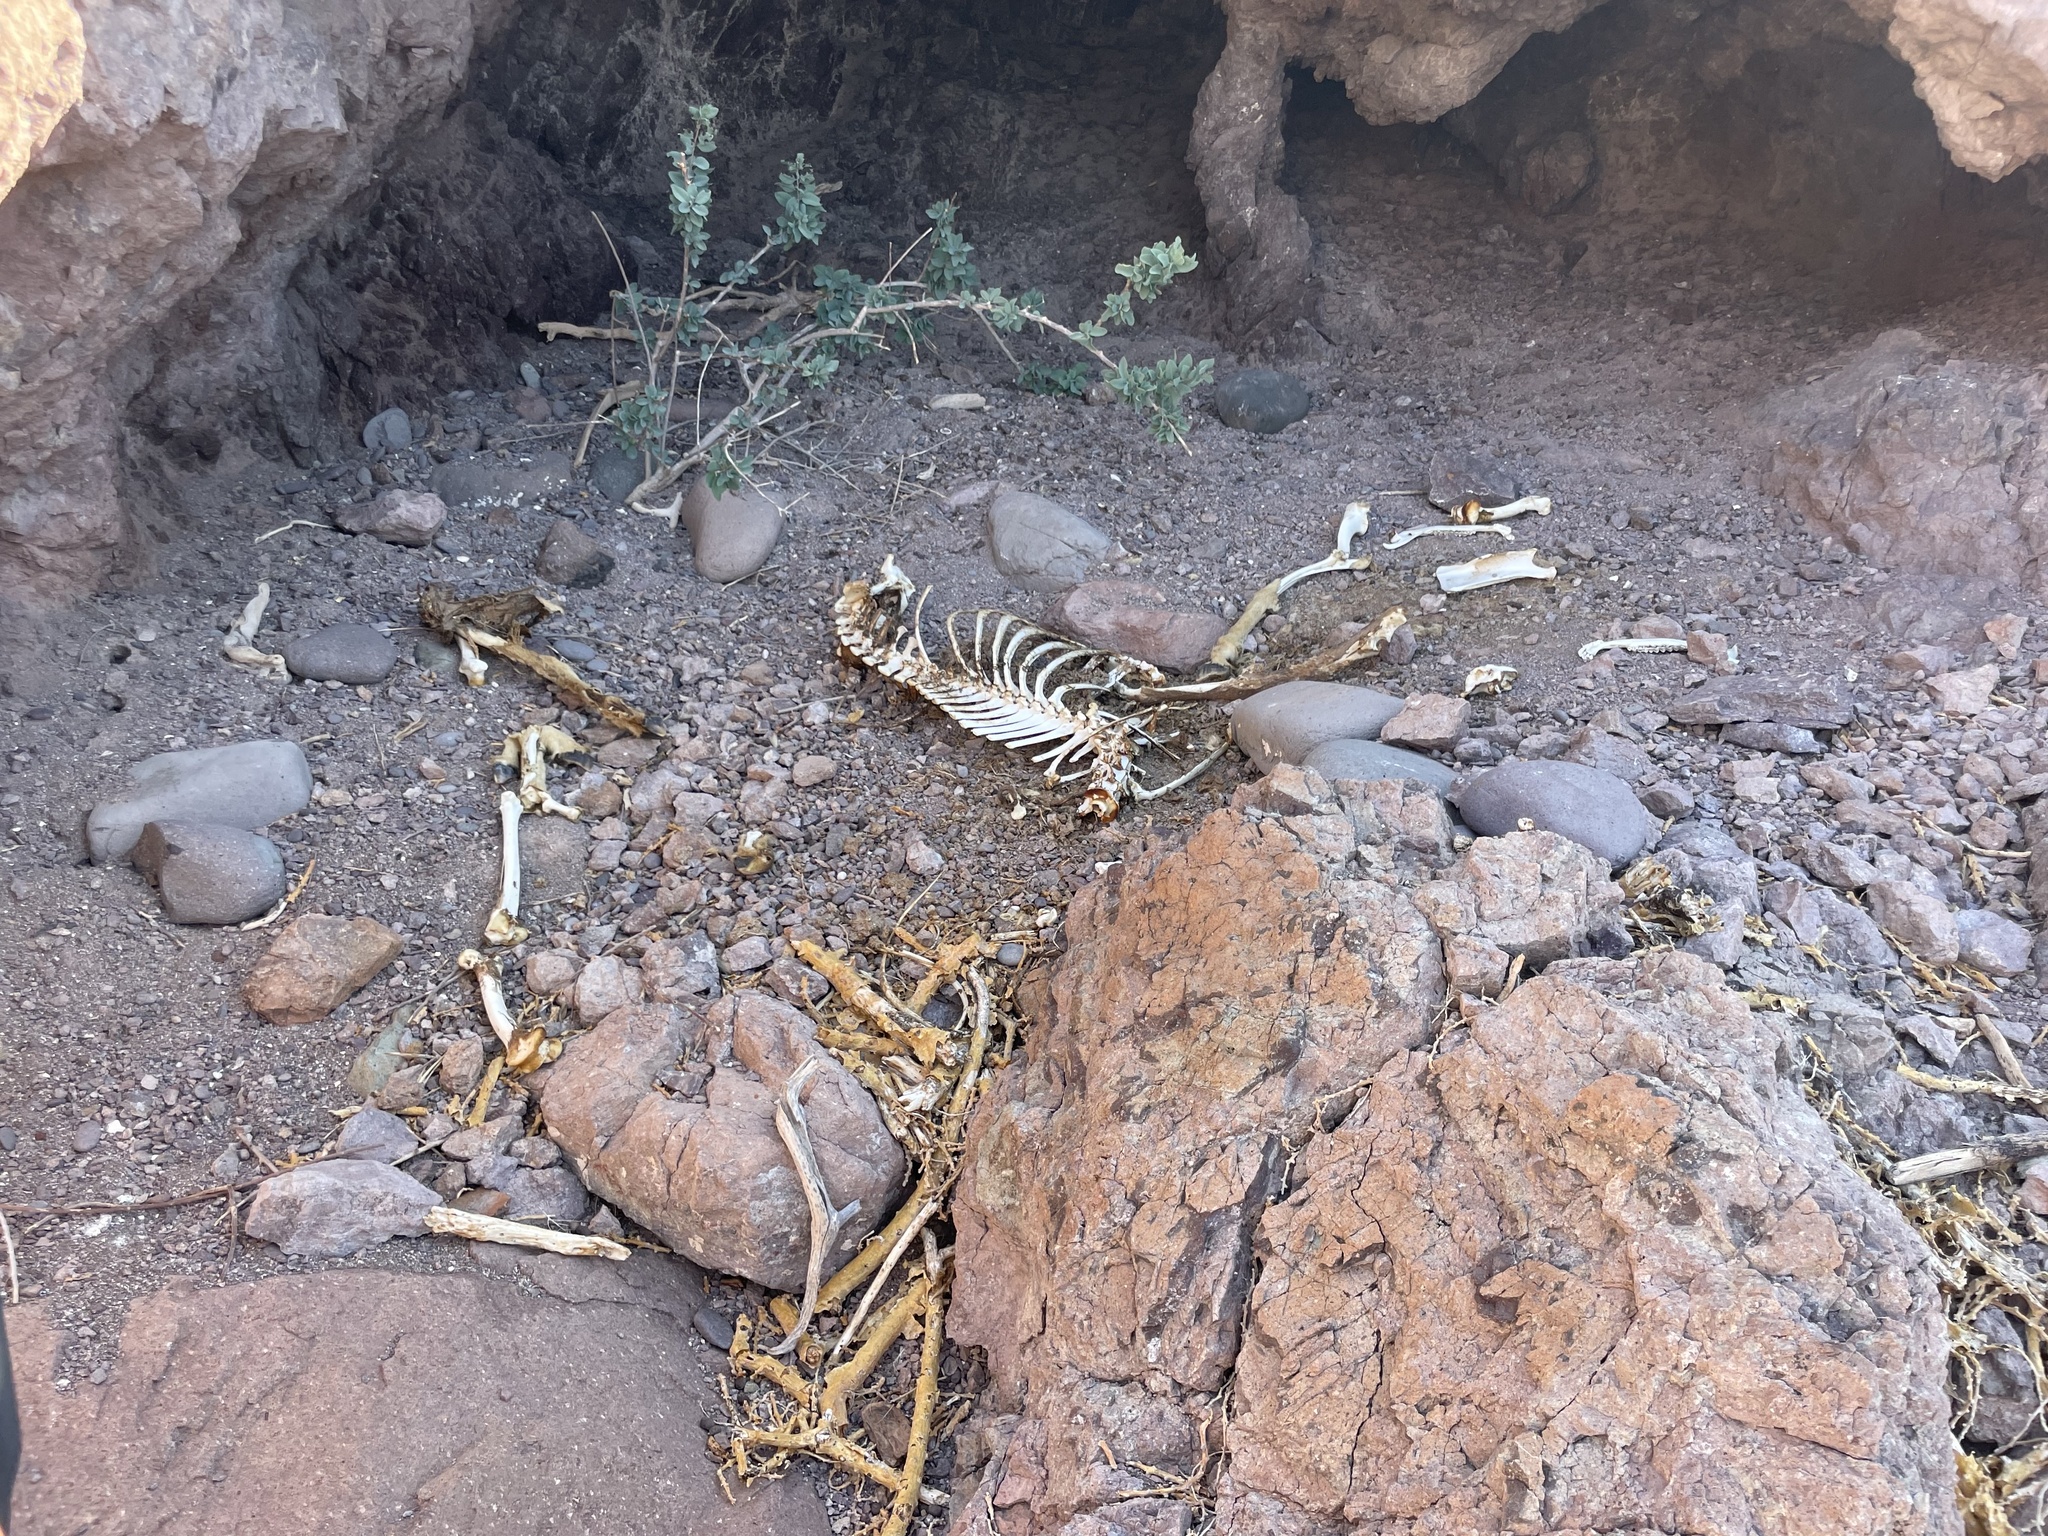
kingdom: Animalia
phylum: Chordata
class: Mammalia
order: Artiodactyla
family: Bovidae
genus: Ovis
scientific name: Ovis canadensis
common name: Bighorn sheep
